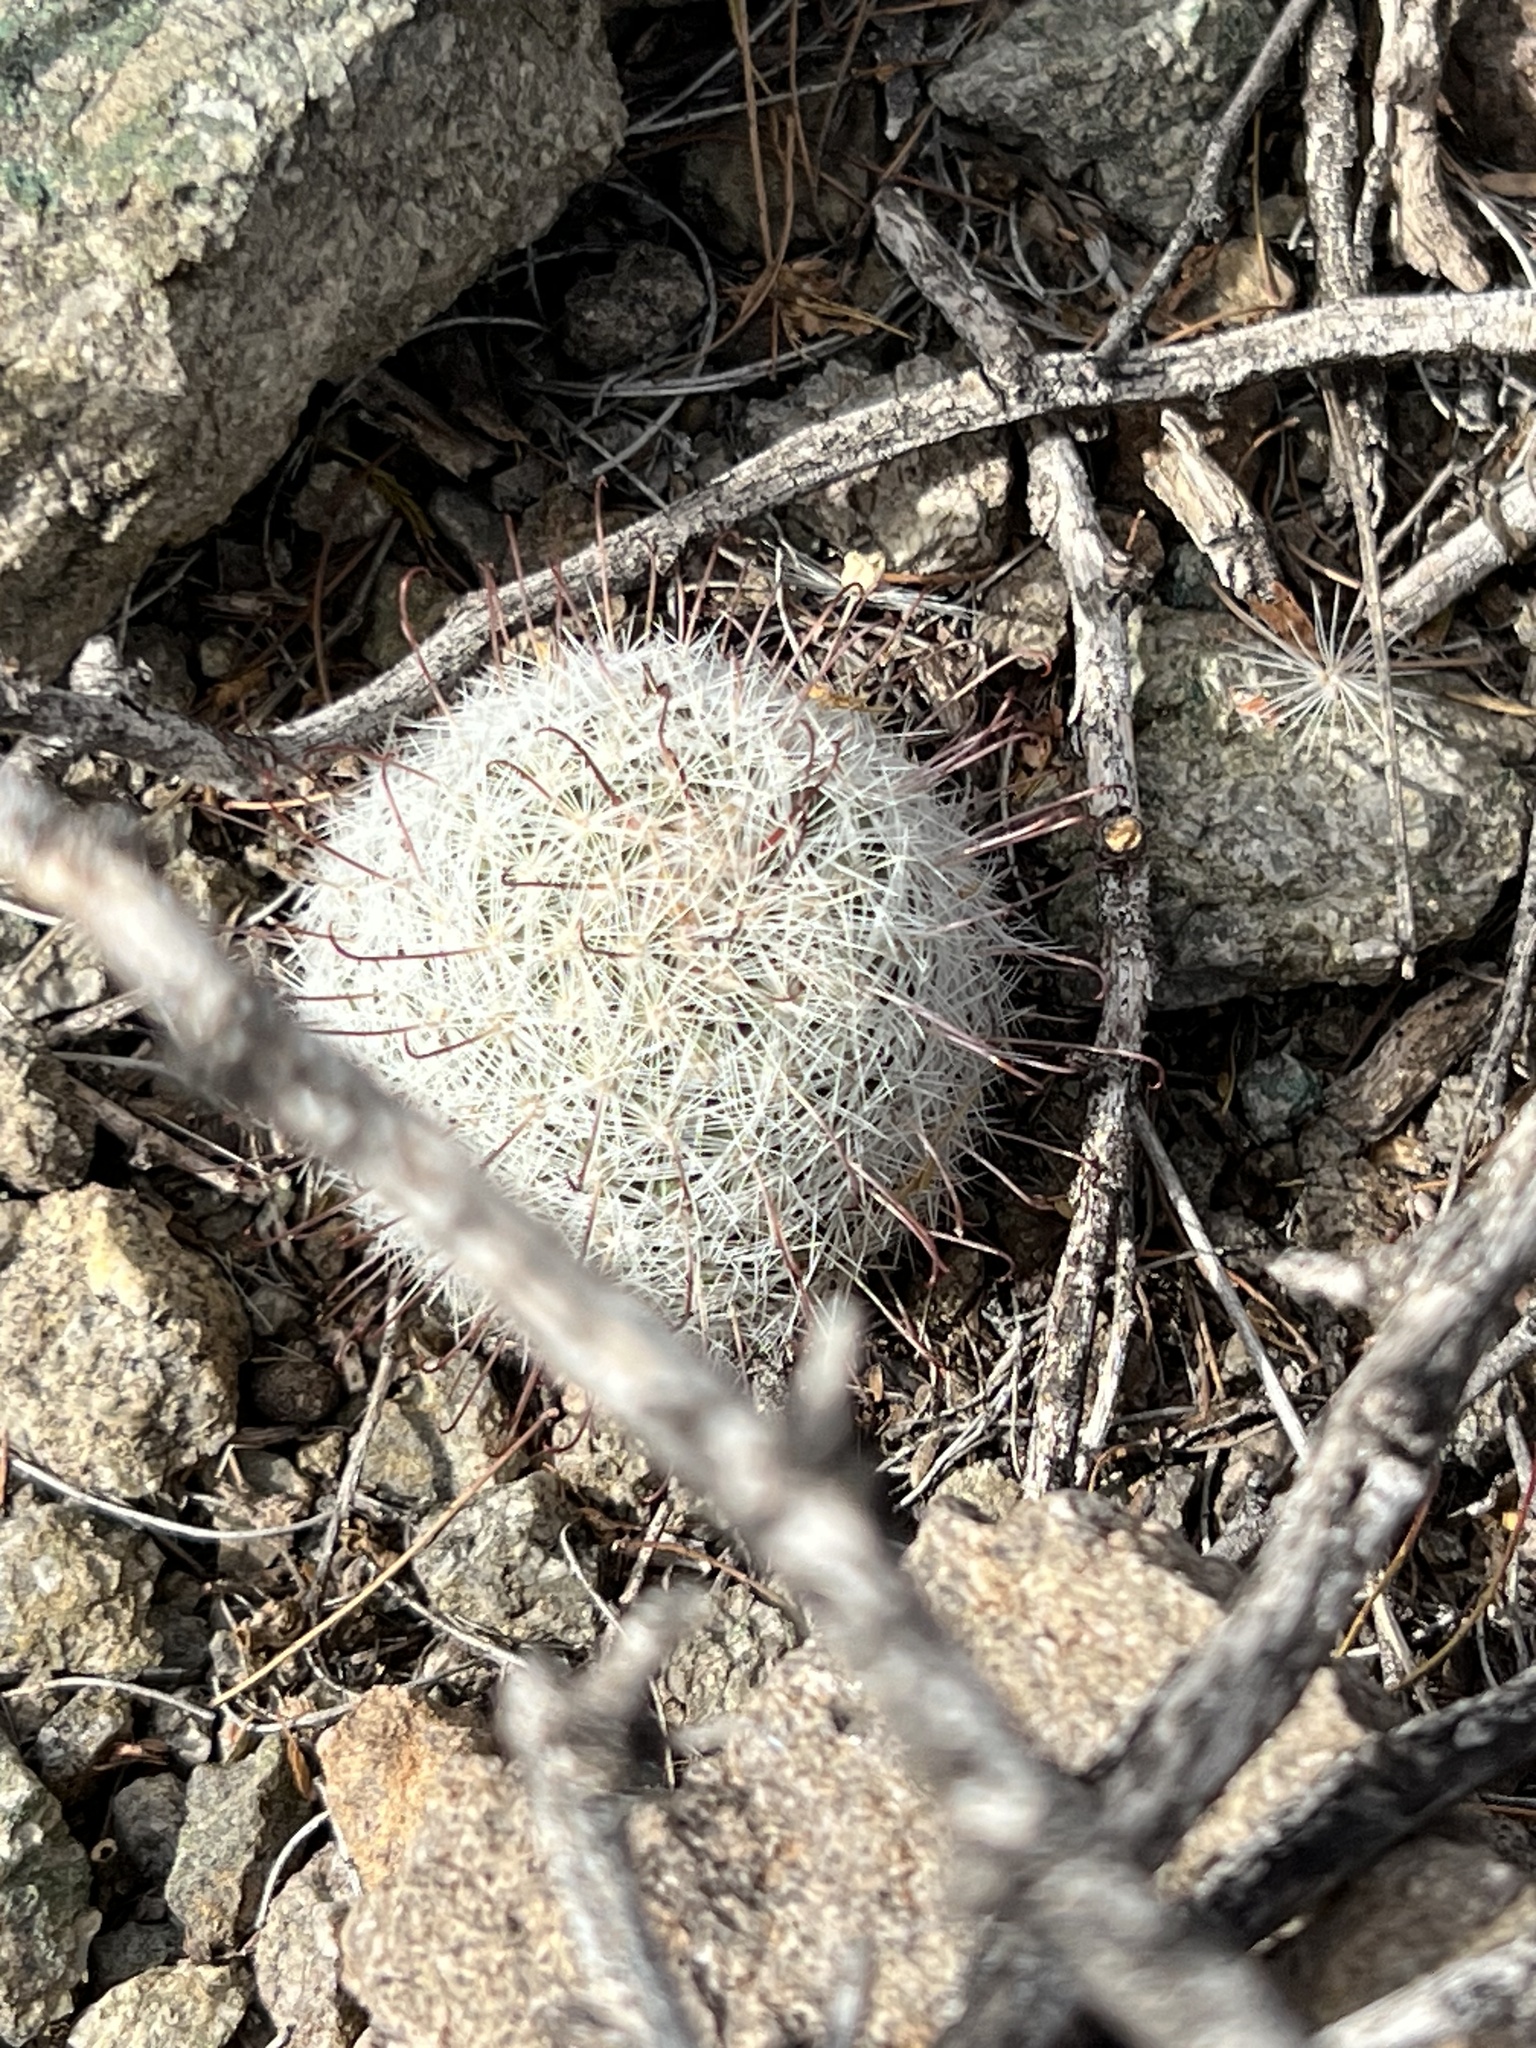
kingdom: Plantae
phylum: Tracheophyta
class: Magnoliopsida
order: Caryophyllales
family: Cactaceae
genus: Cochemiea
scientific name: Cochemiea grahamii
